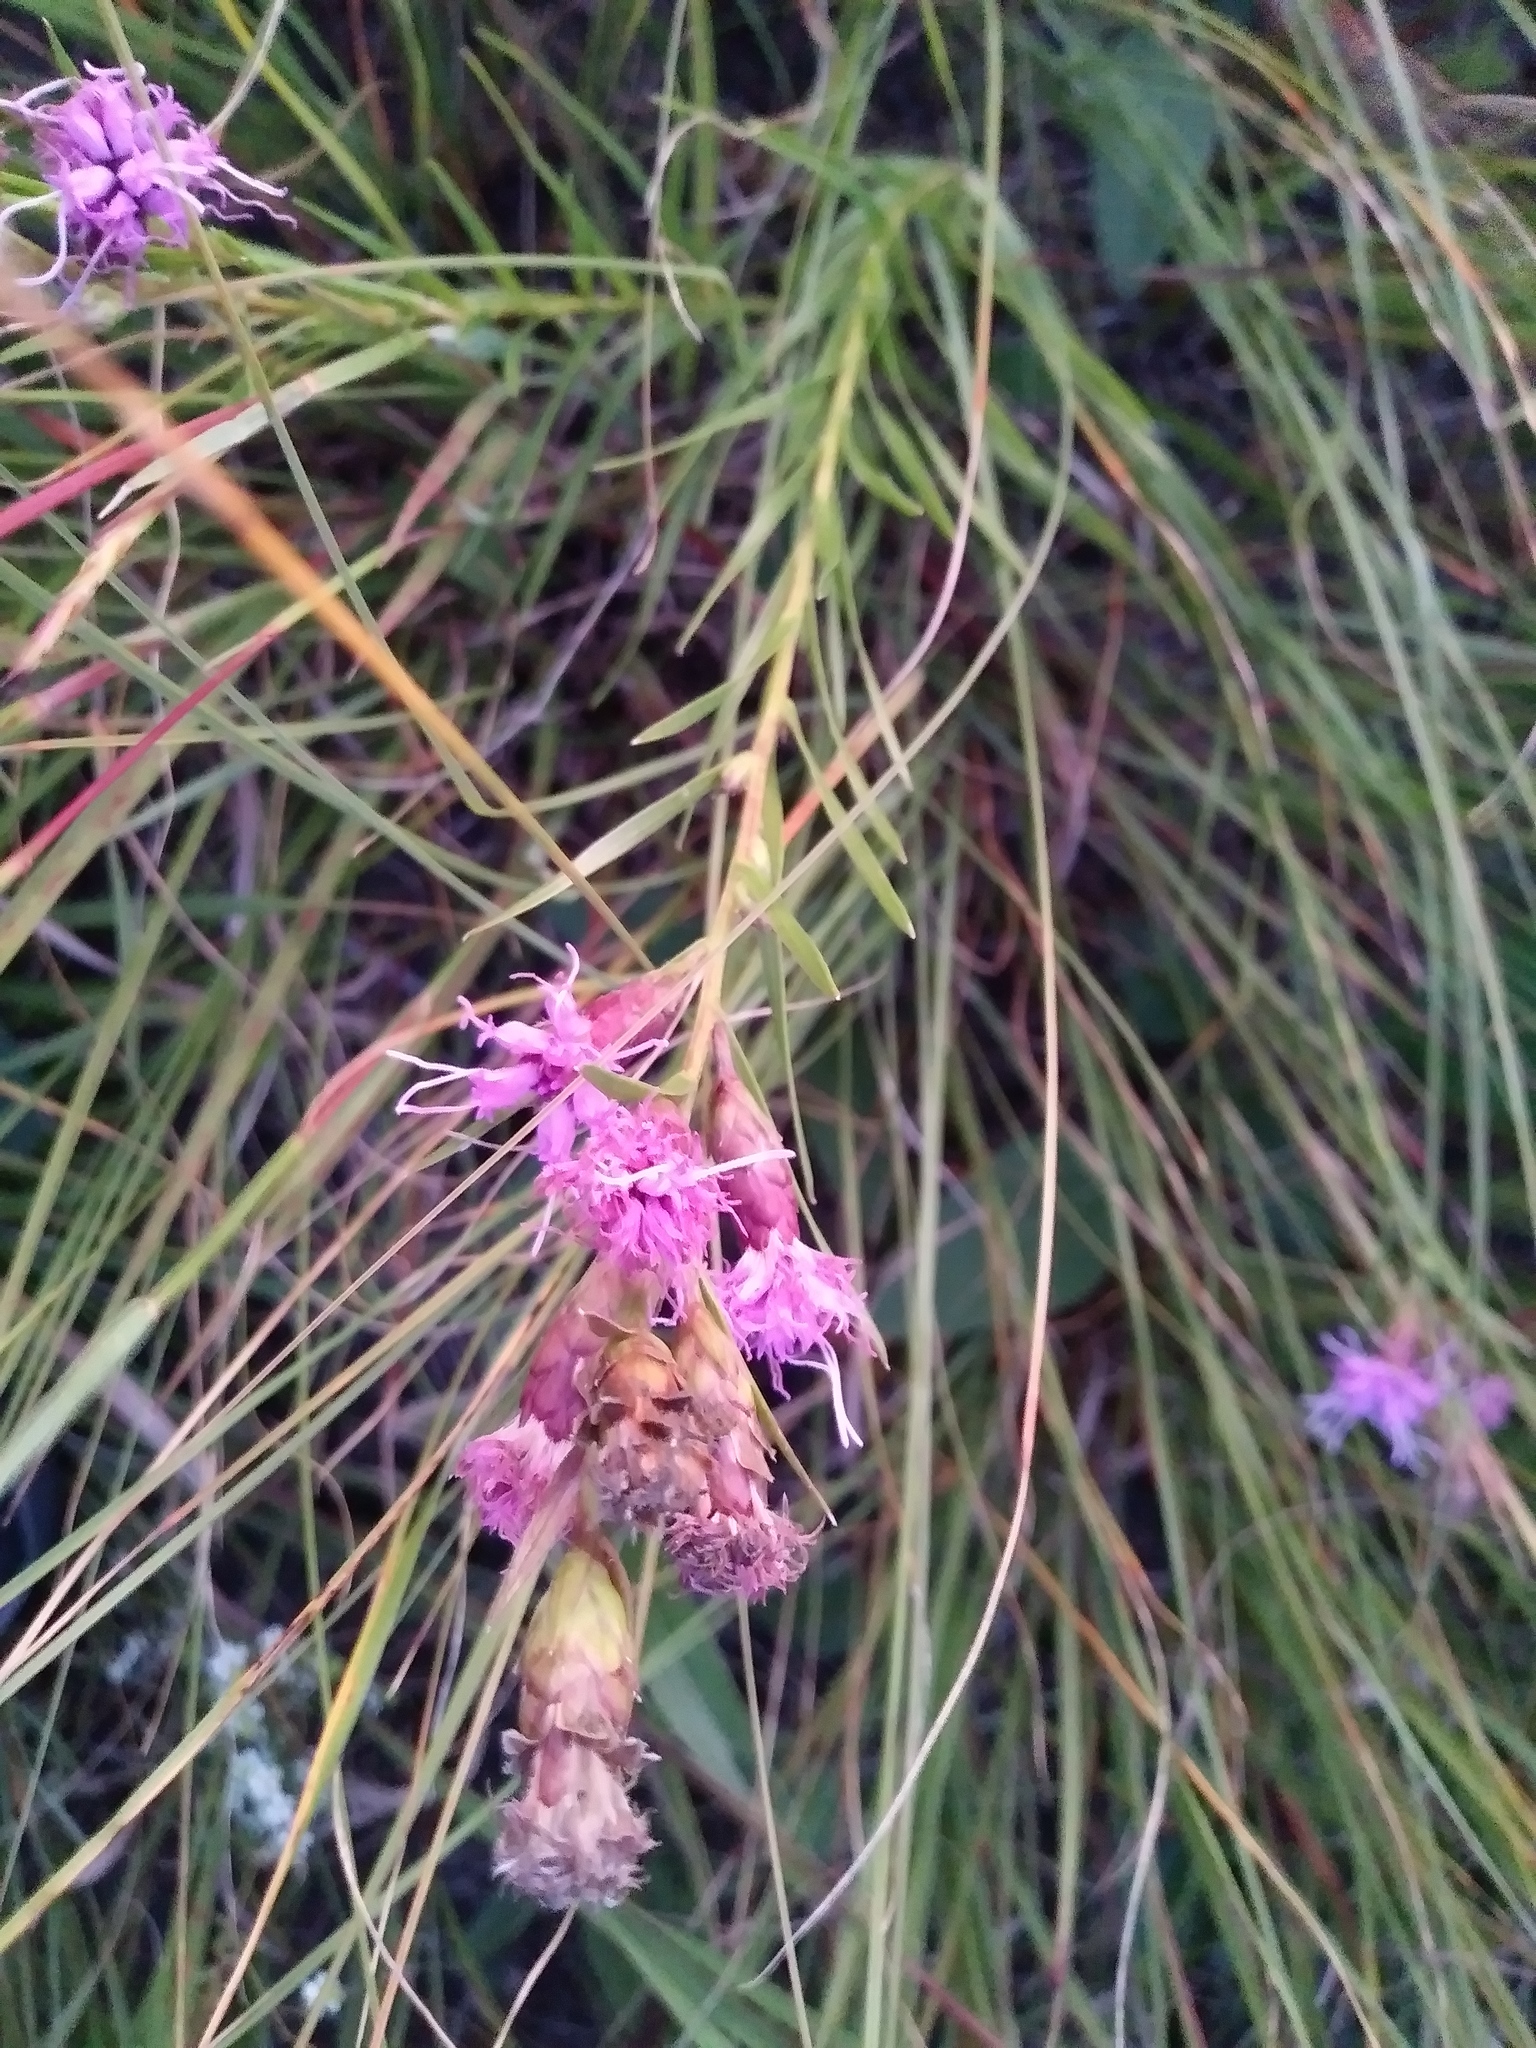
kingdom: Plantae
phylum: Tracheophyta
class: Magnoliopsida
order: Asterales
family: Asteraceae
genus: Liatris
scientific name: Liatris cylindracea
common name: Few-head blazingstar
